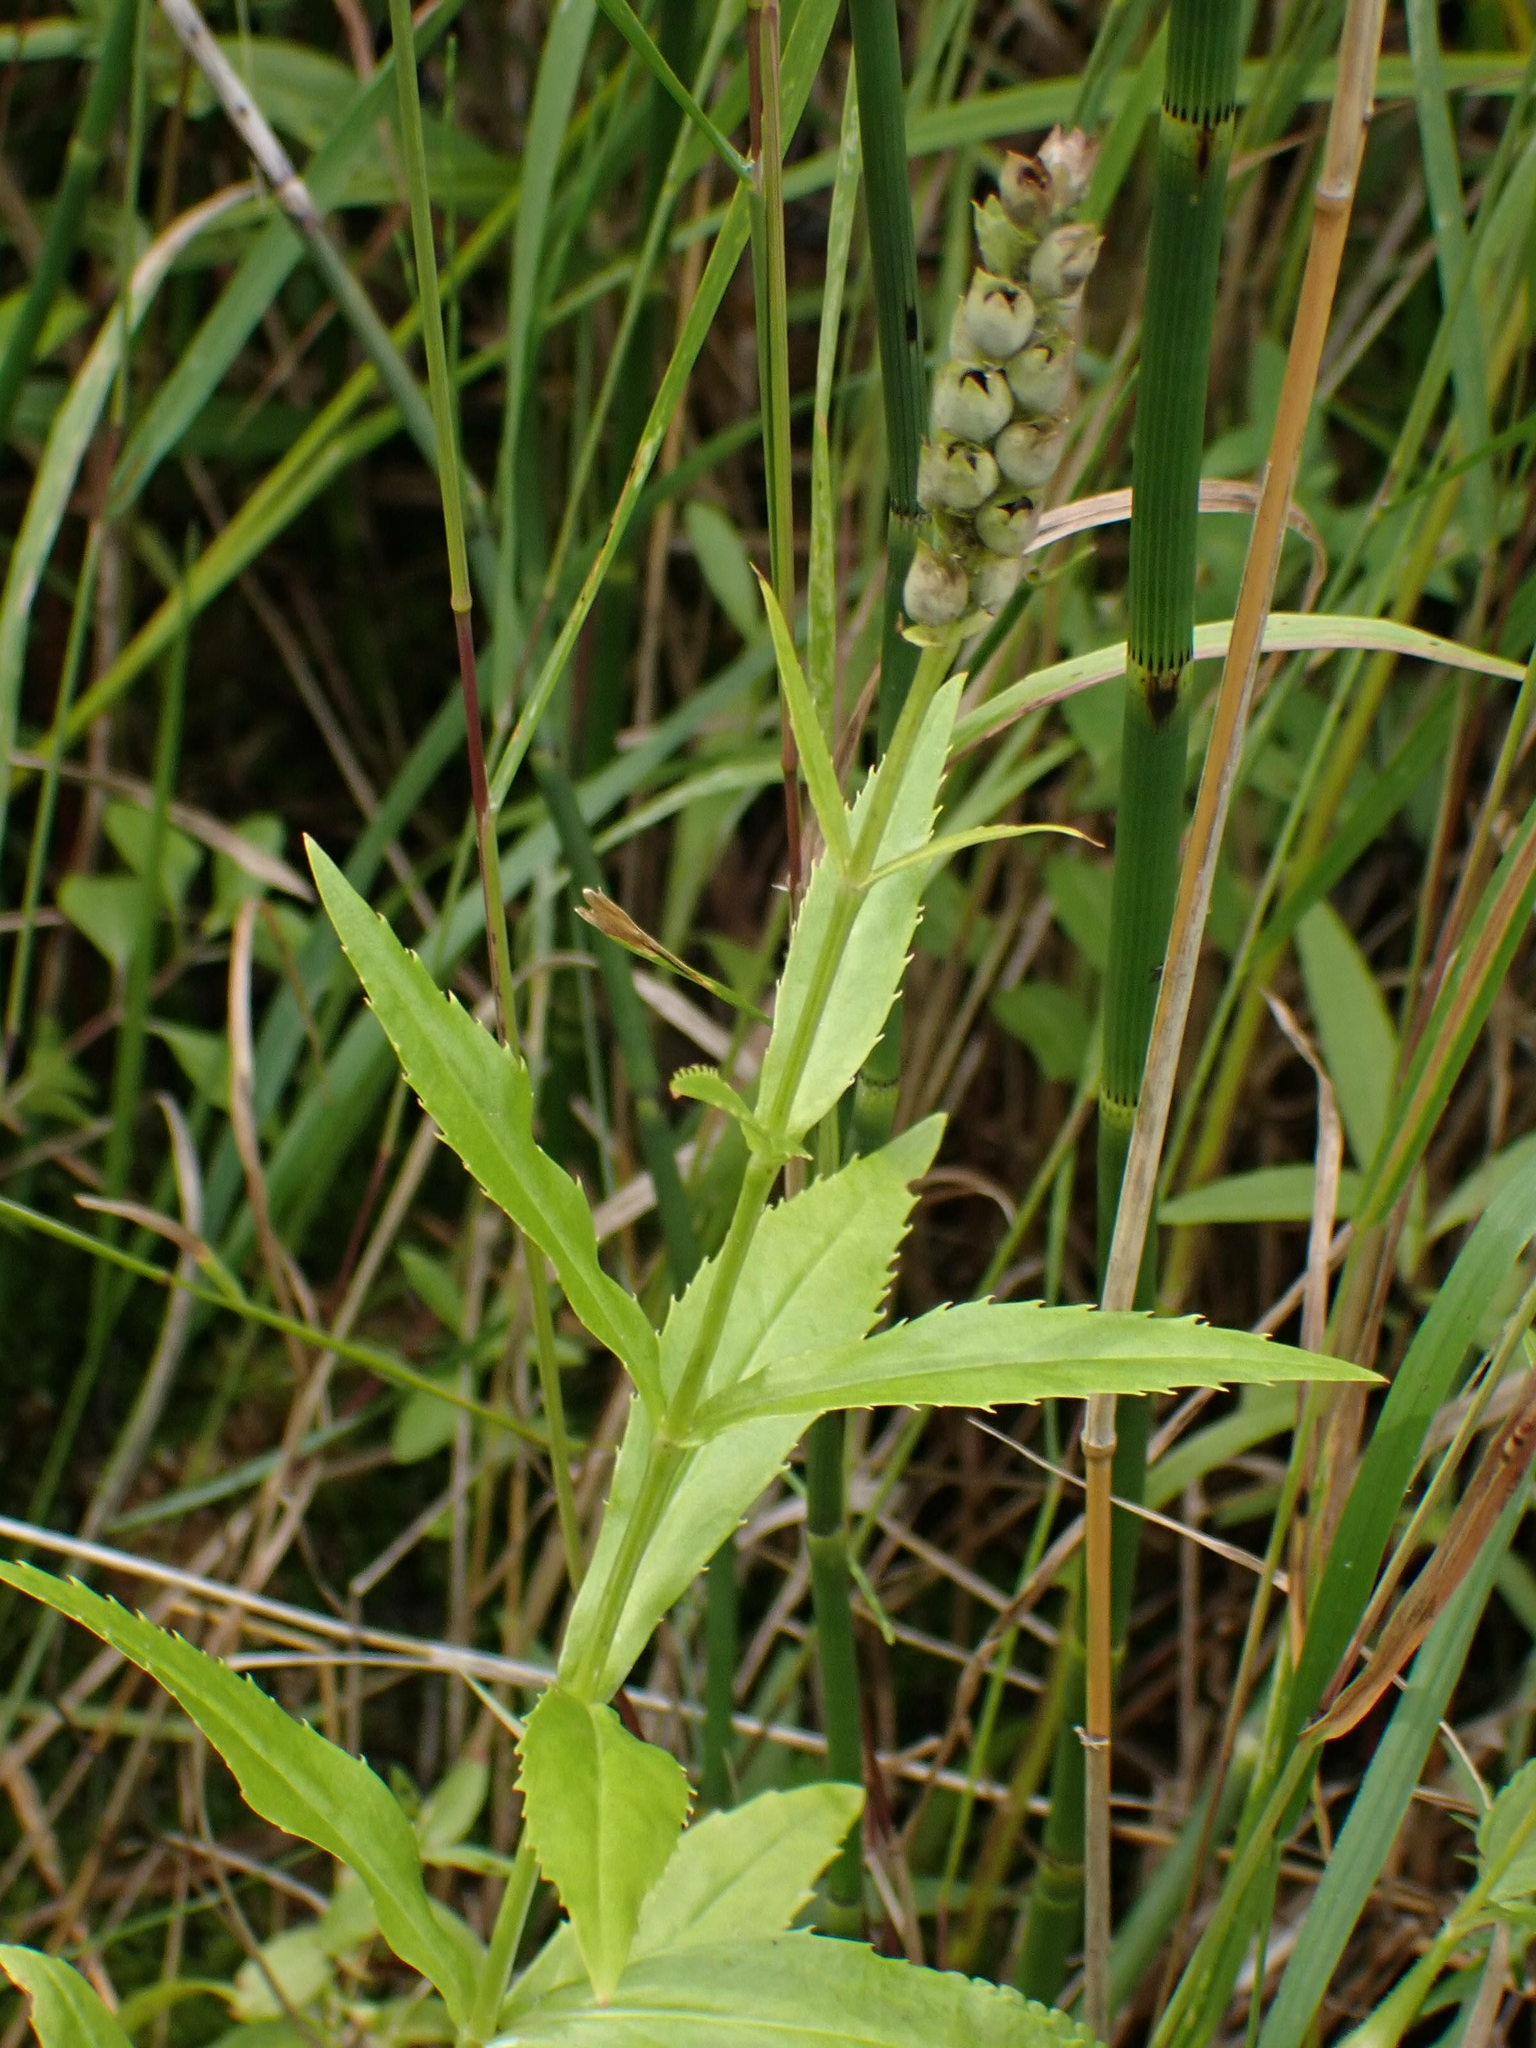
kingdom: Plantae
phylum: Tracheophyta
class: Magnoliopsida
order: Lamiales
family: Lamiaceae
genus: Physostegia
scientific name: Physostegia virginiana
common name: Obedient-plant
